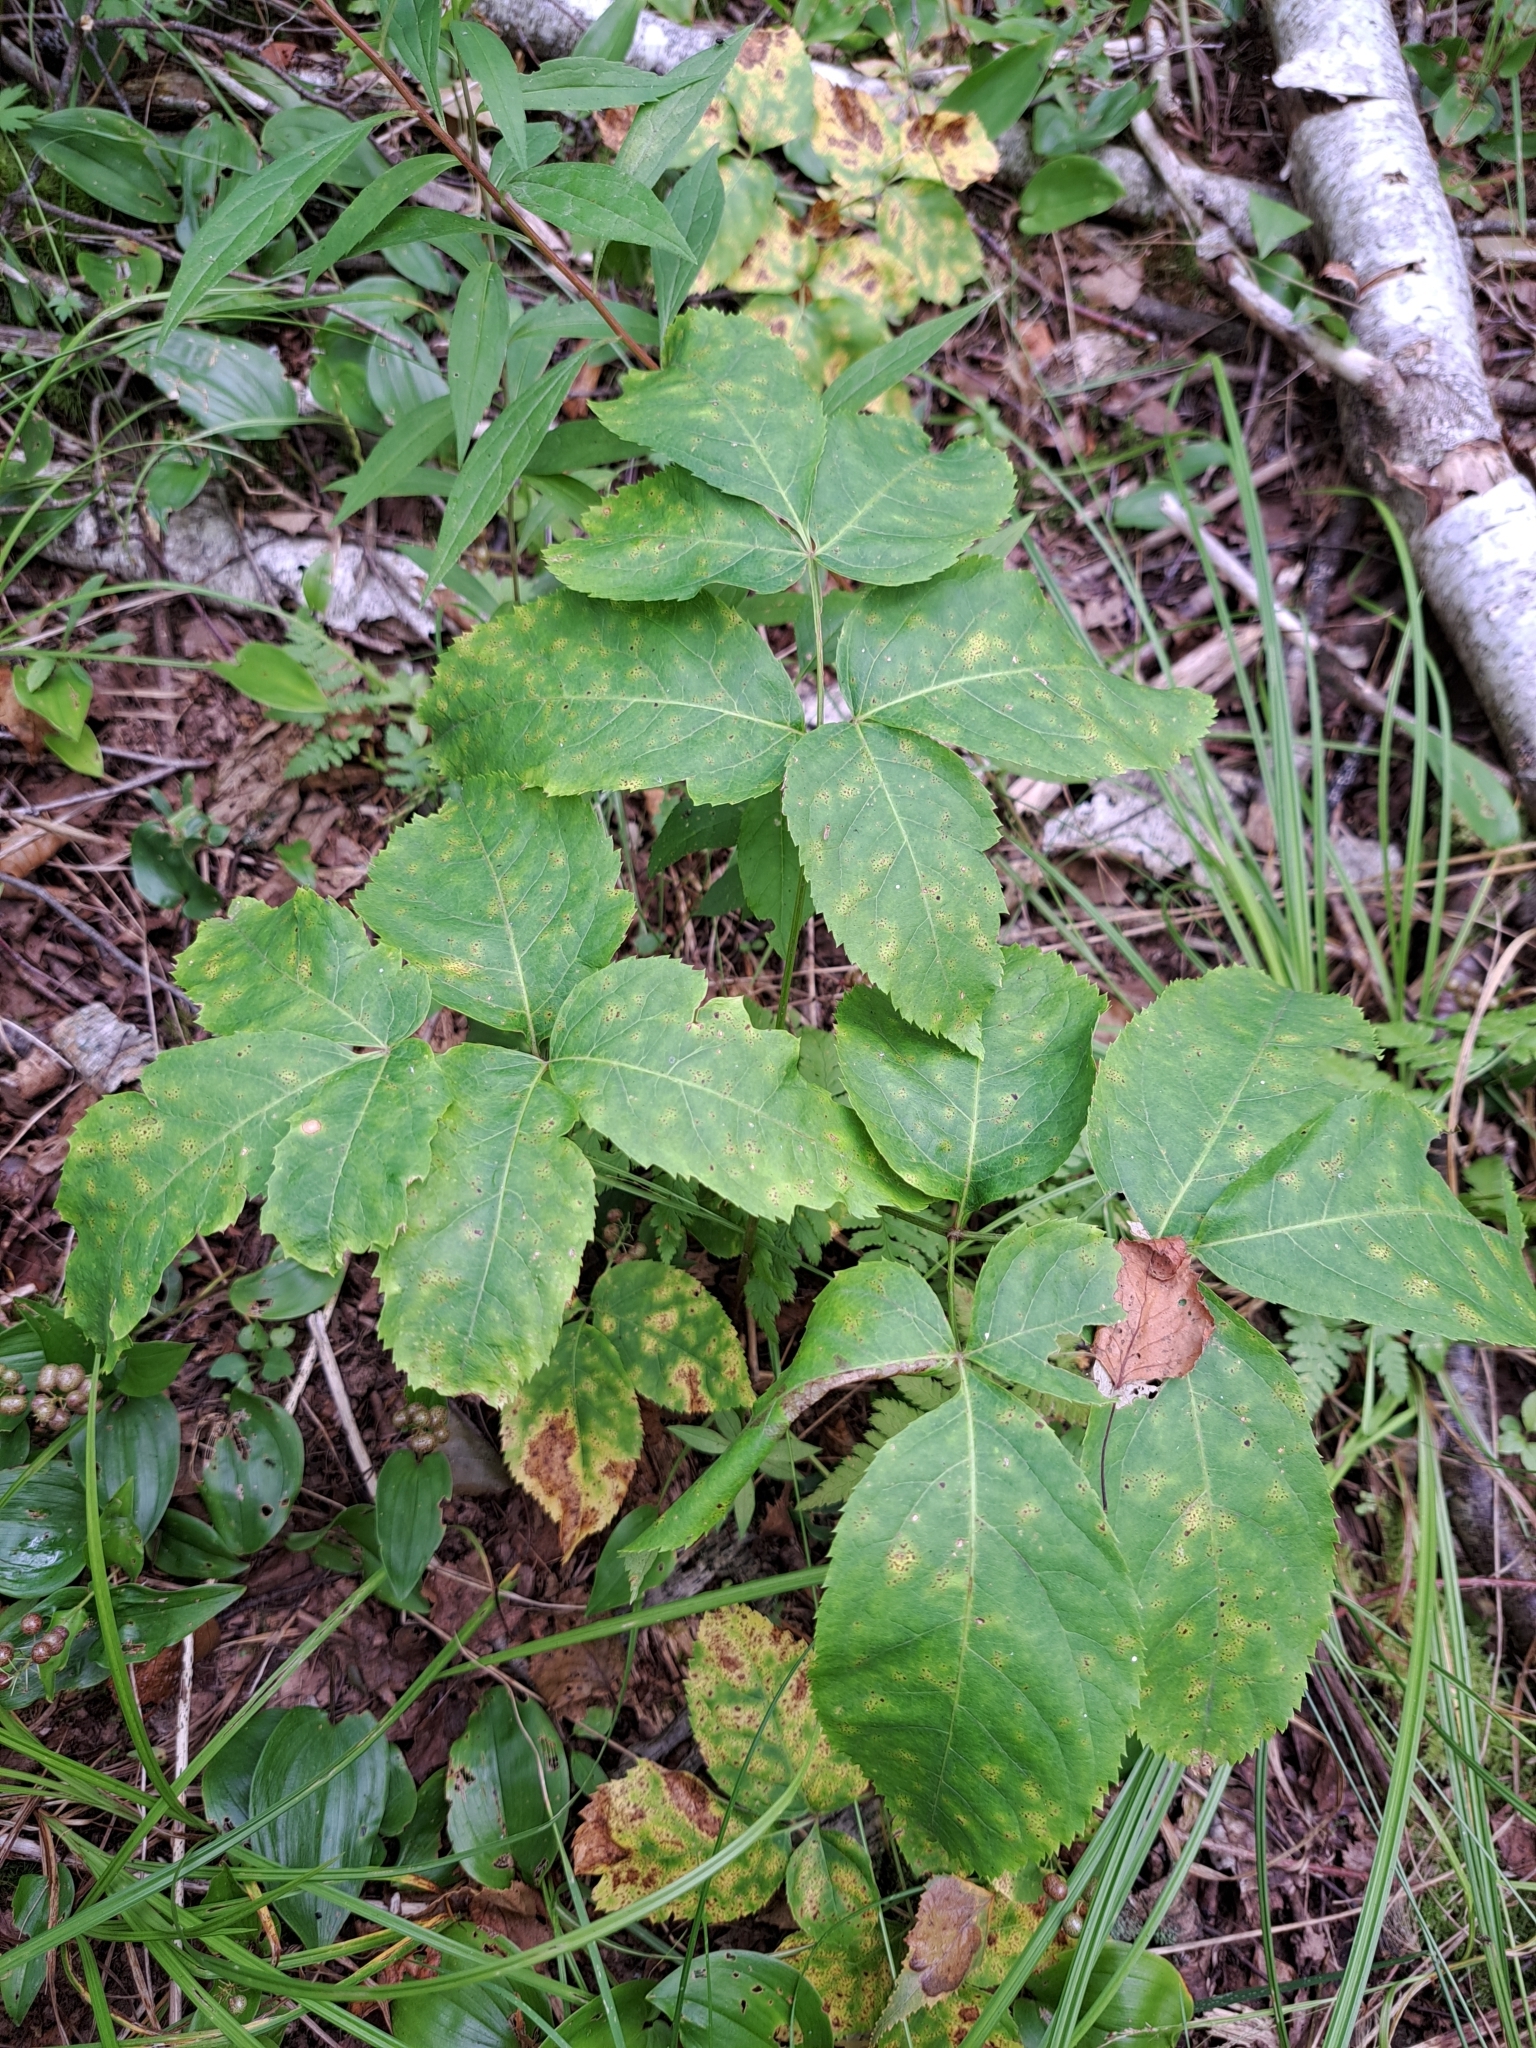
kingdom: Plantae
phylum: Tracheophyta
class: Magnoliopsida
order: Apiales
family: Araliaceae
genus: Aralia
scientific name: Aralia nudicaulis
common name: Wild sarsaparilla
